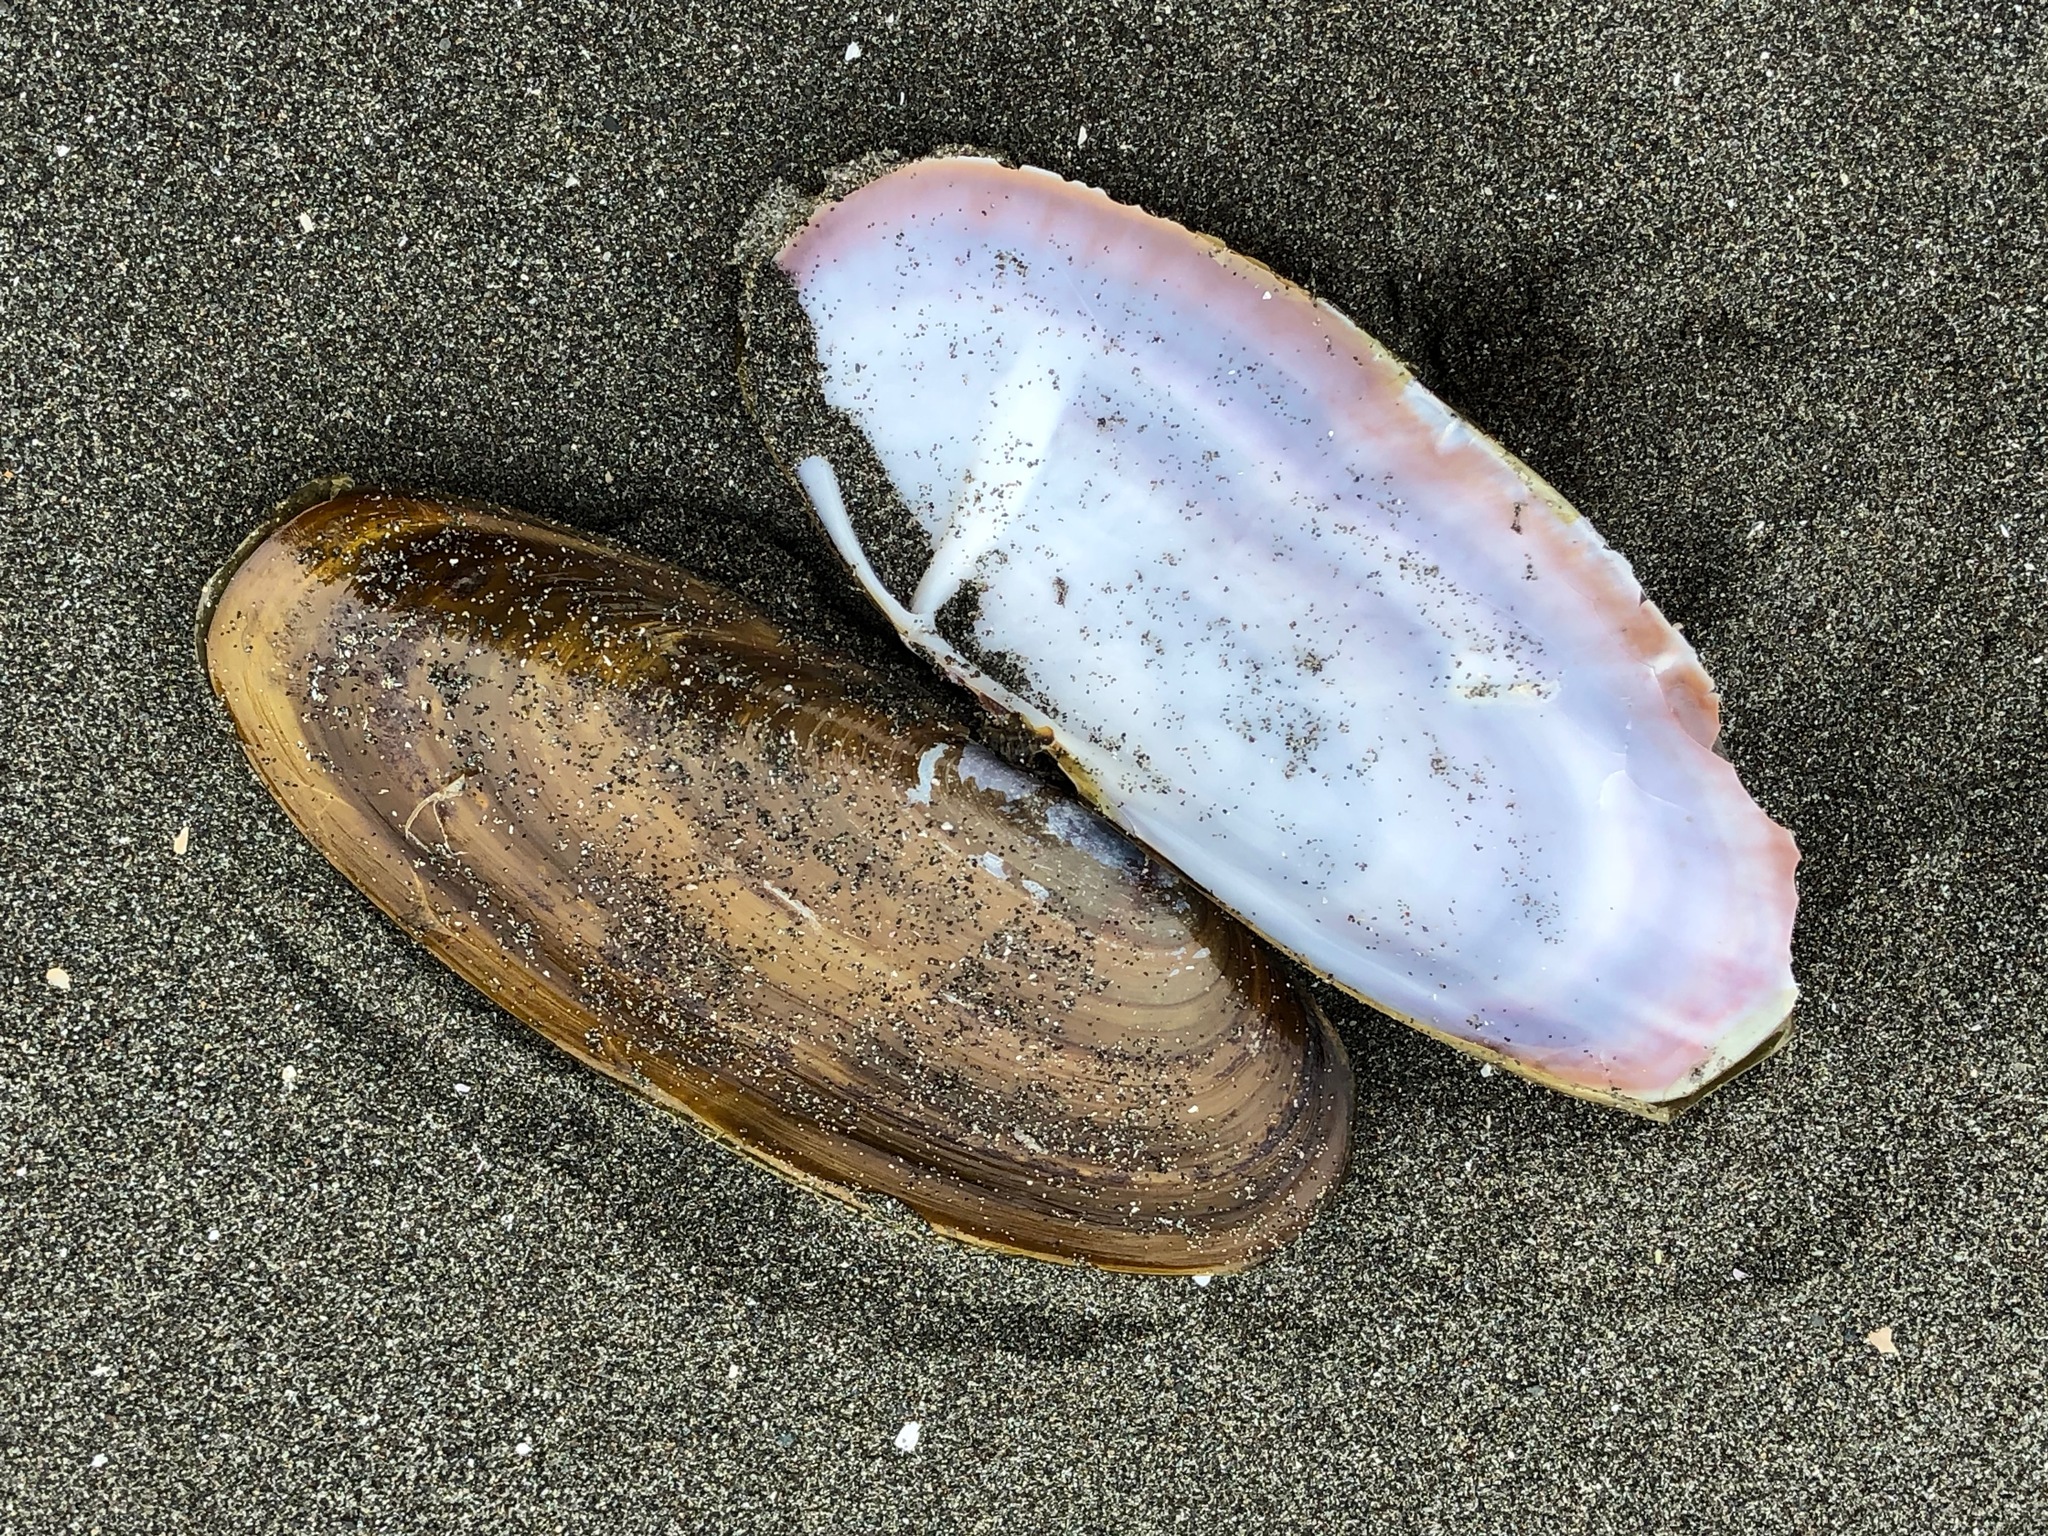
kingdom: Animalia
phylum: Mollusca
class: Bivalvia
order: Adapedonta
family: Pharidae
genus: Siliqua
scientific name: Siliqua patula
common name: Pacific razor clam
